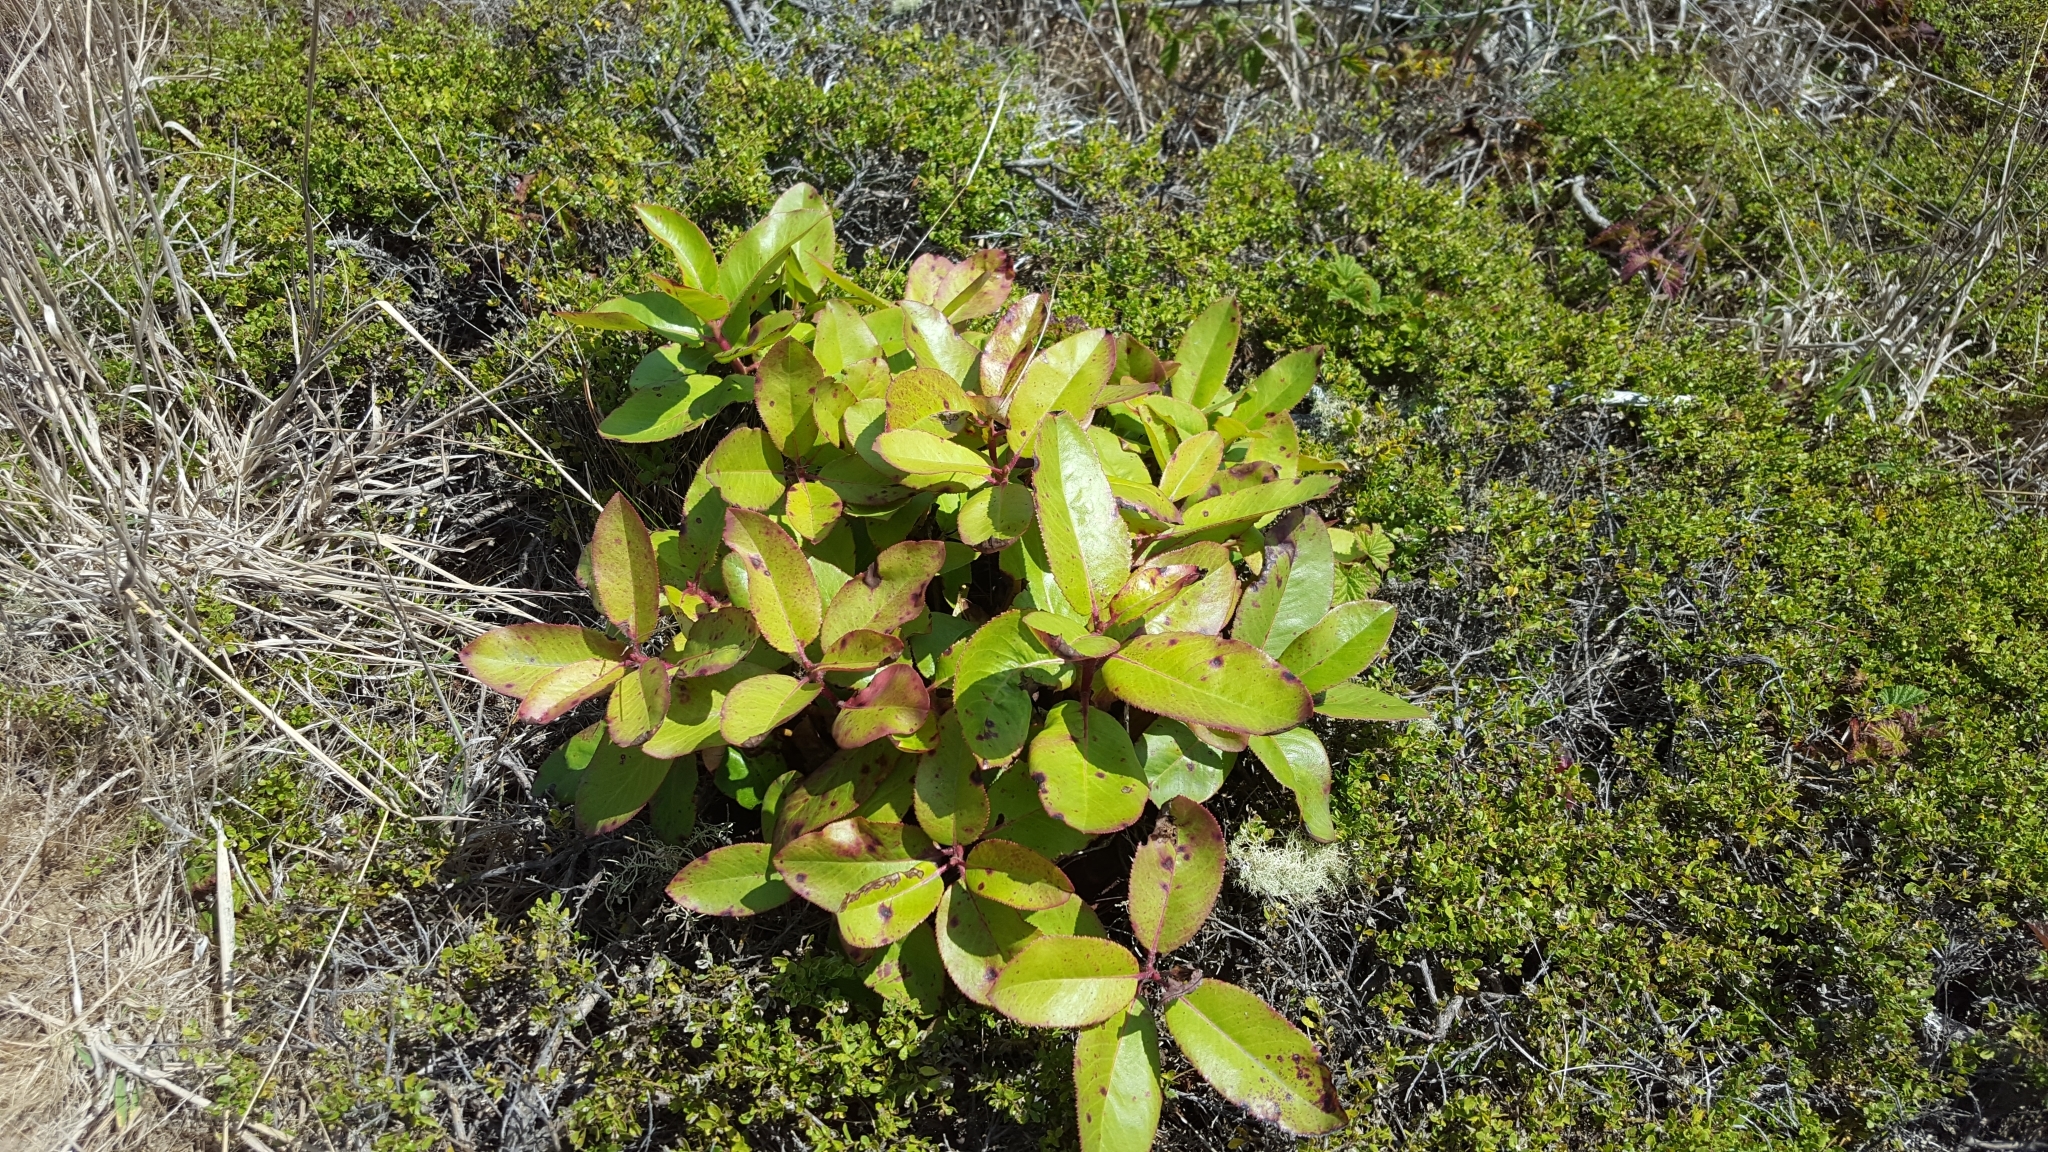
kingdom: Plantae
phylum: Tracheophyta
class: Magnoliopsida
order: Ericales
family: Ericaceae
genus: Arbutus
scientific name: Arbutus menziesii
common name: Pacific madrone
